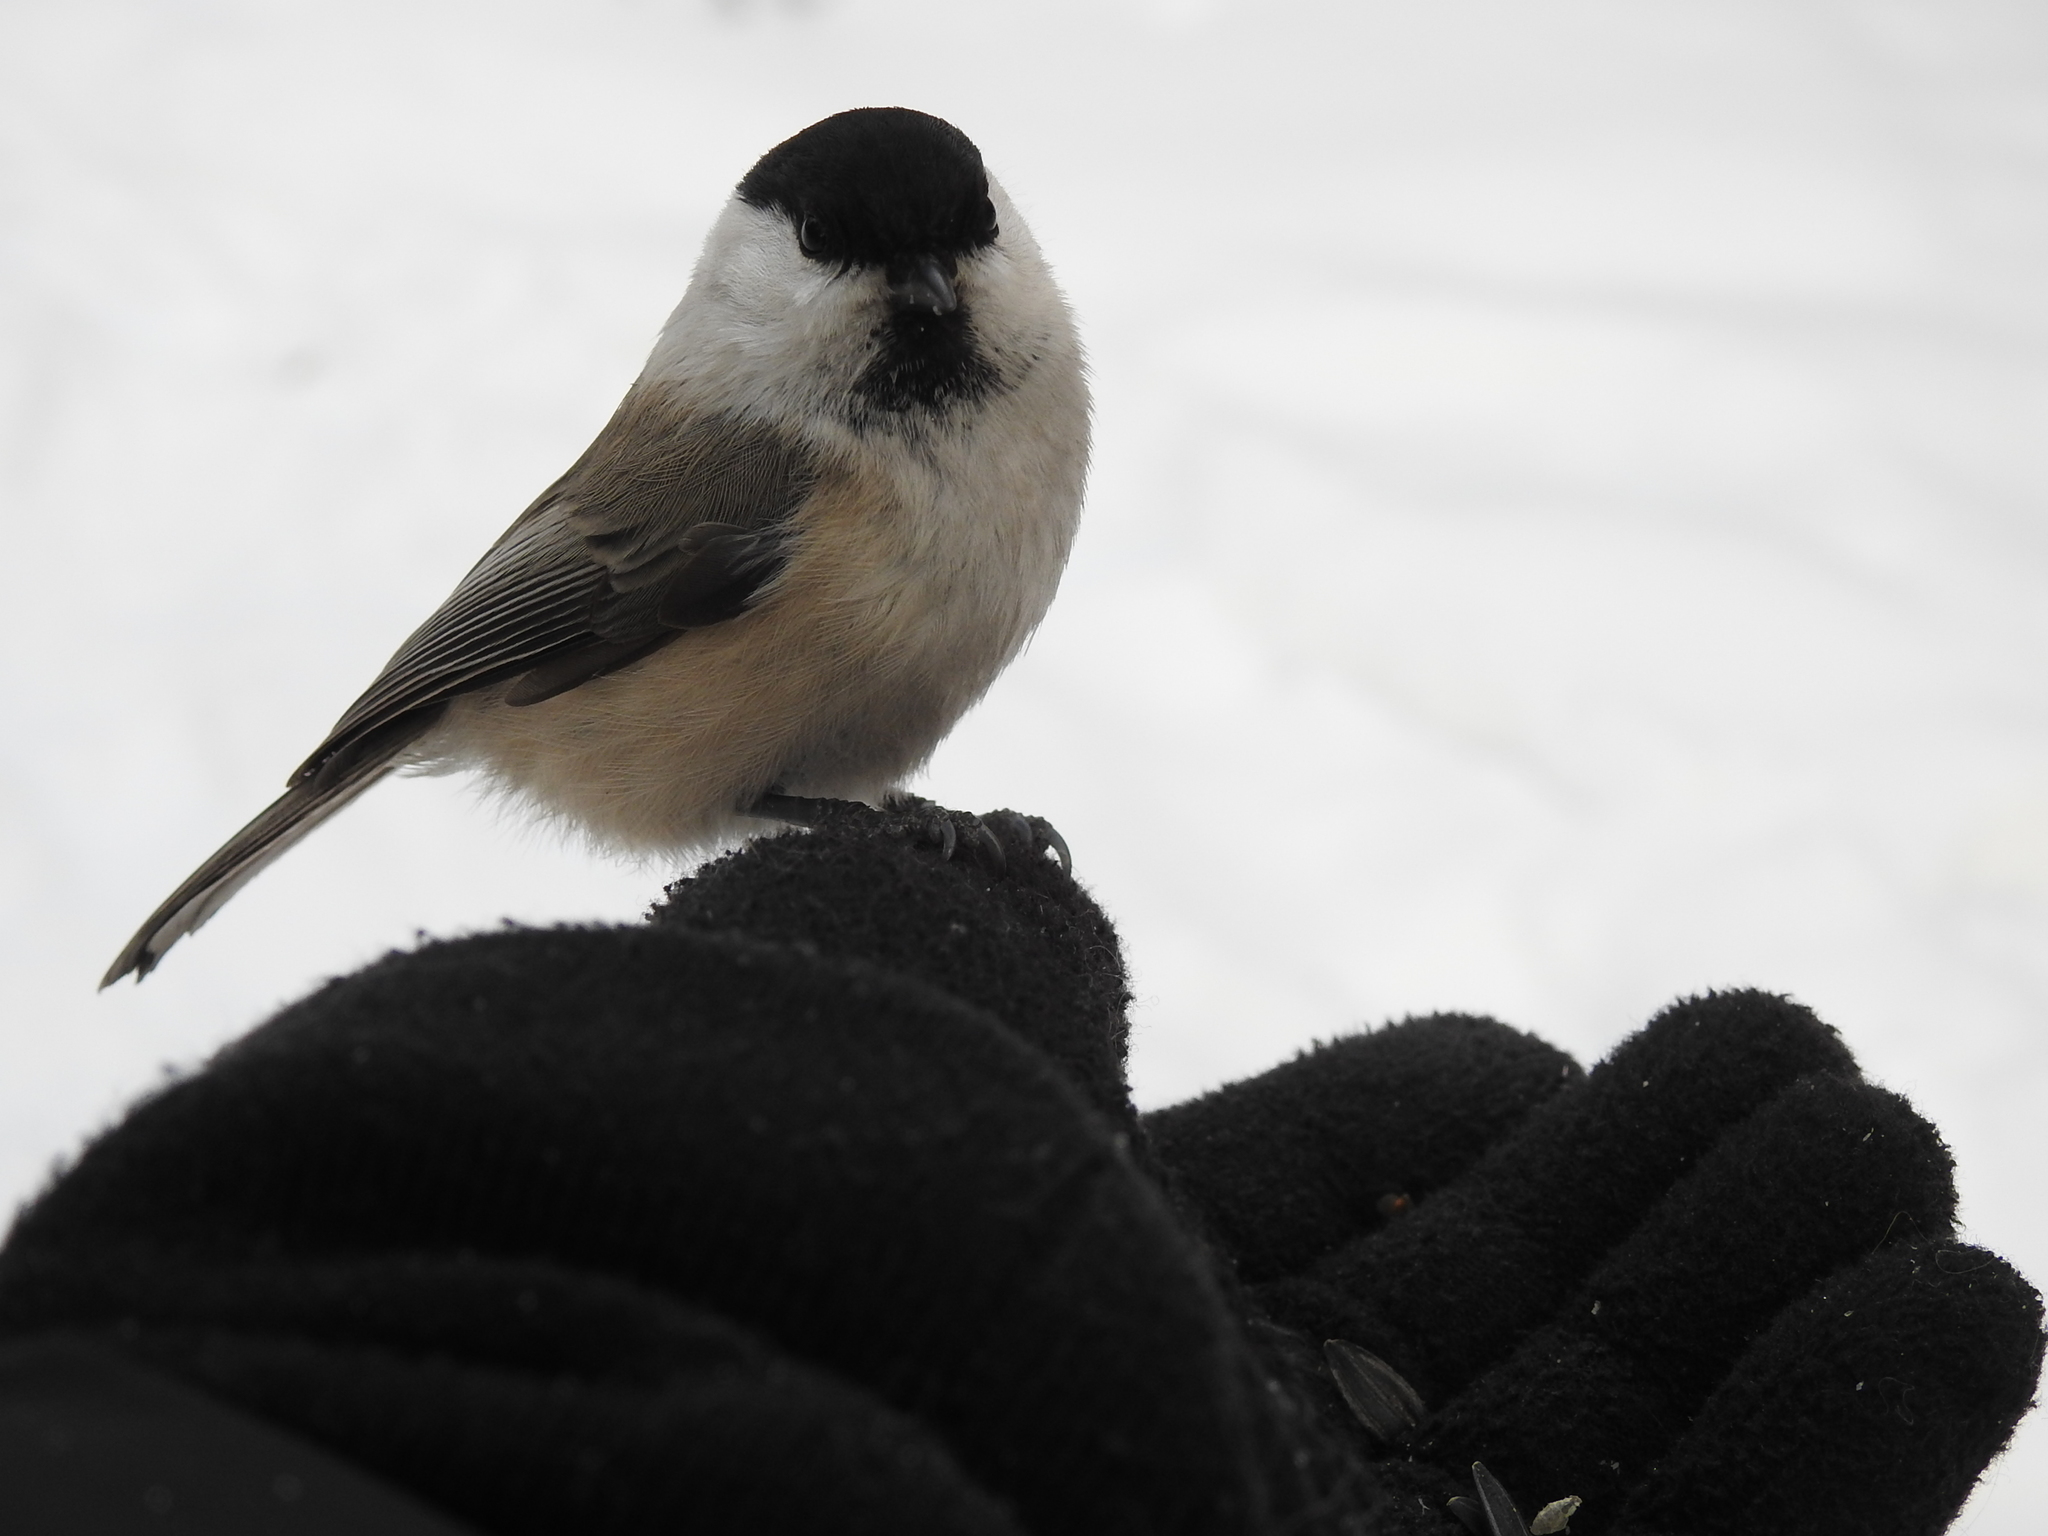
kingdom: Animalia
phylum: Chordata
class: Aves
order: Passeriformes
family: Paridae
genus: Poecile
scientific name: Poecile montanus
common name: Willow tit
